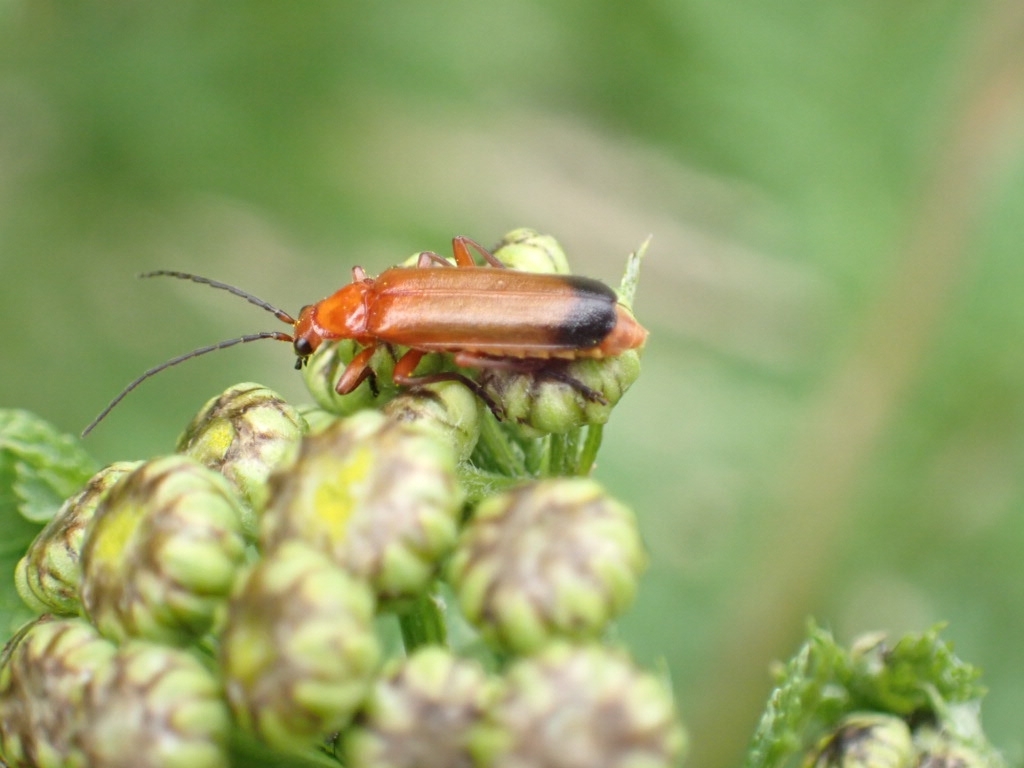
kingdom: Animalia
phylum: Arthropoda
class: Insecta
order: Coleoptera
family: Cantharidae
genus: Rhagonycha
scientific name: Rhagonycha fulva
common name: Common red soldier beetle
